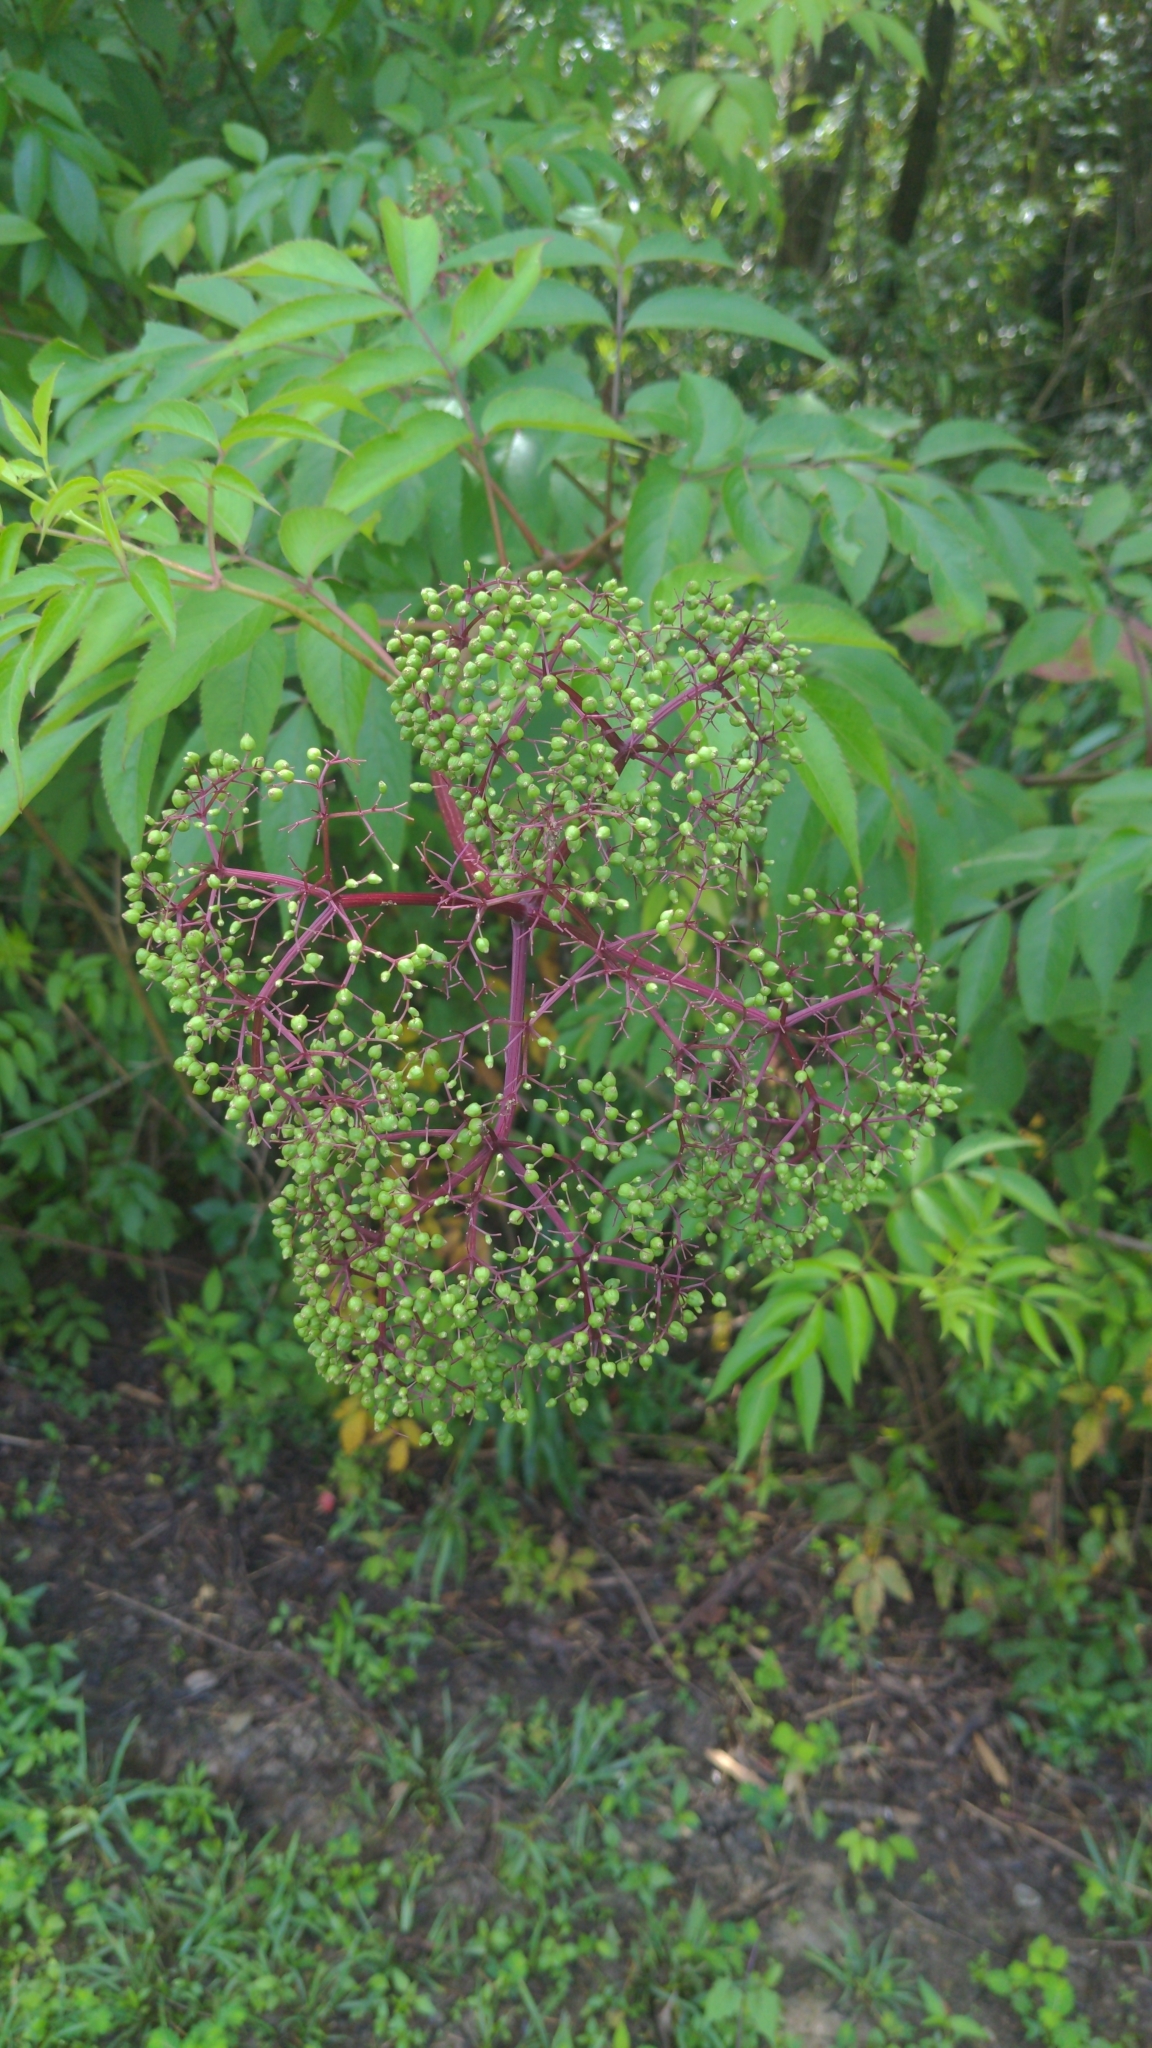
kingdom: Plantae
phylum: Tracheophyta
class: Magnoliopsida
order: Dipsacales
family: Viburnaceae
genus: Sambucus
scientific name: Sambucus canadensis
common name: American elder
